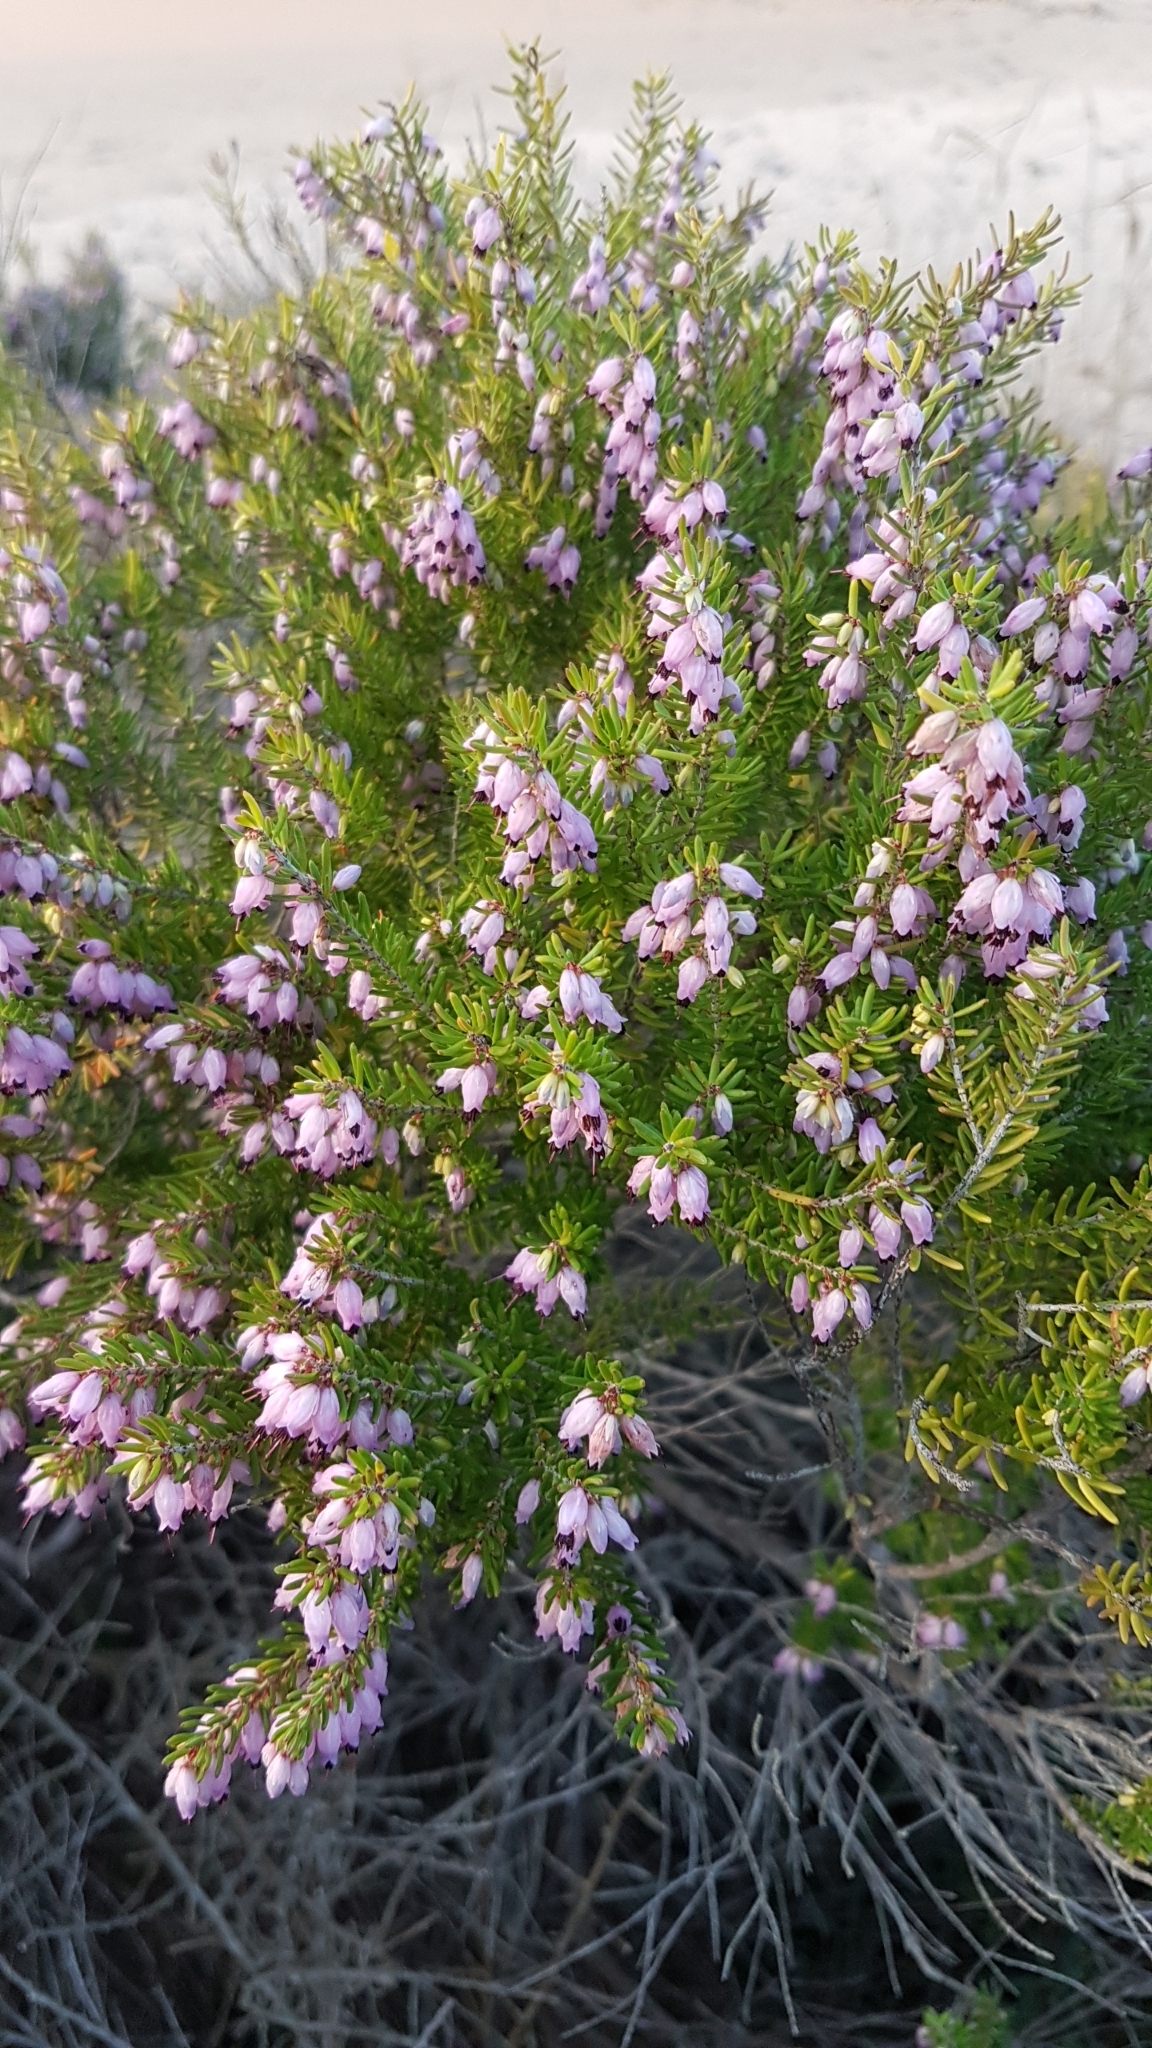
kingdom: Plantae
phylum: Tracheophyta
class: Magnoliopsida
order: Ericales
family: Ericaceae
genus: Erica
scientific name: Erica erigena
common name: Irish heath
